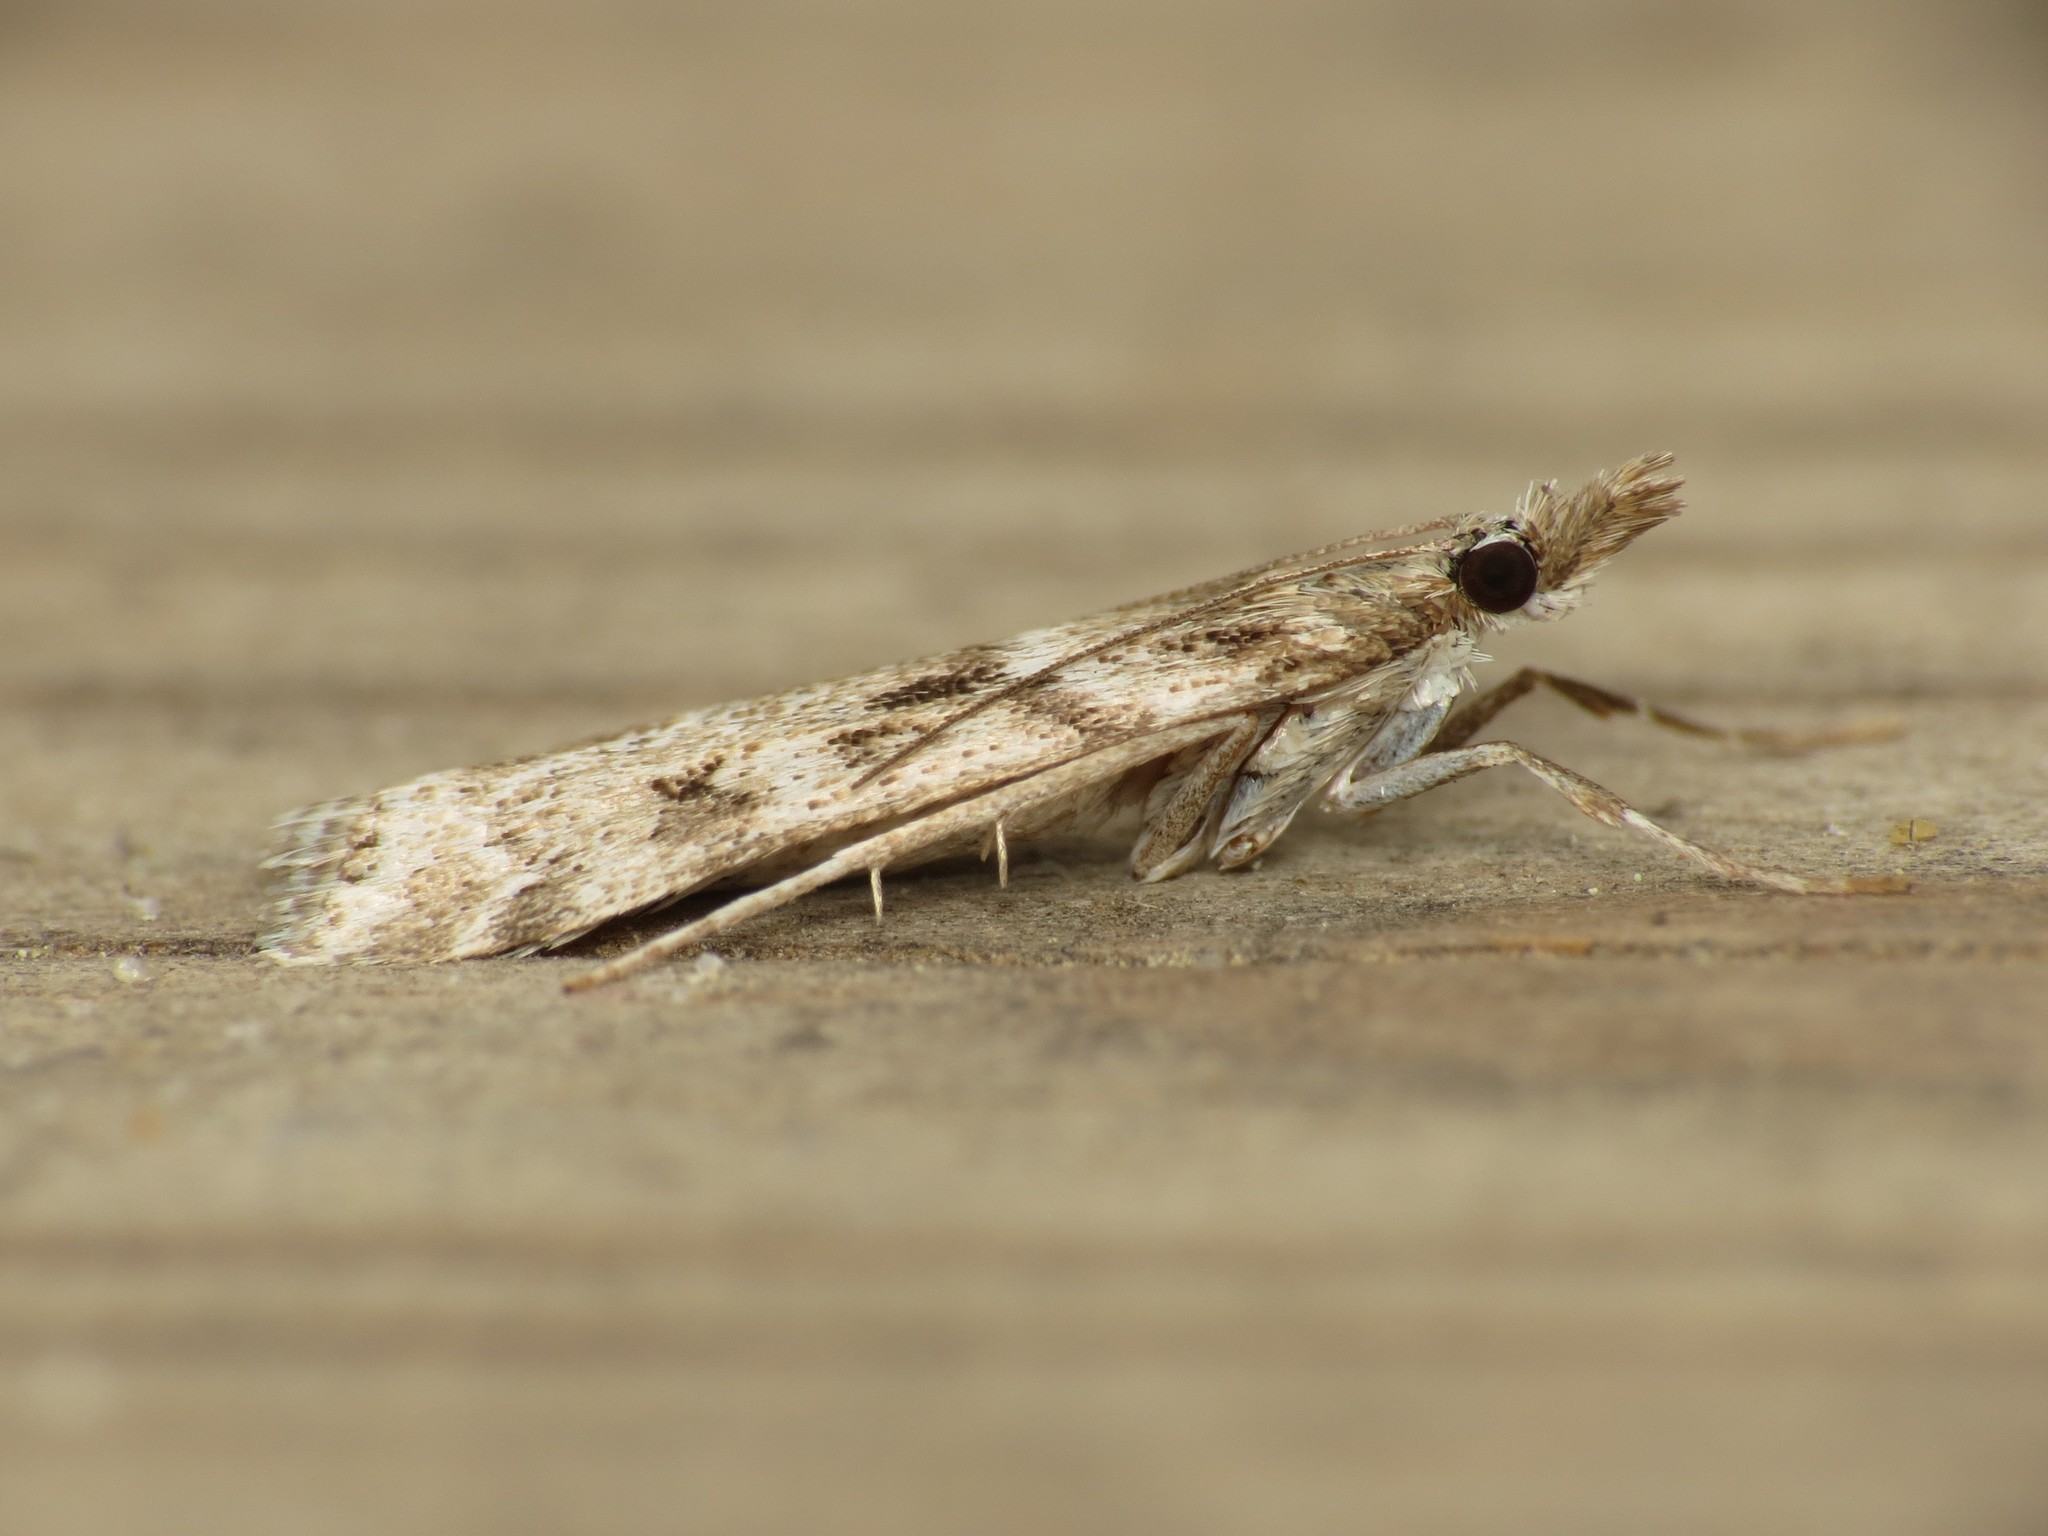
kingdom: Animalia
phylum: Arthropoda
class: Insecta
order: Lepidoptera
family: Crambidae
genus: Eudonia
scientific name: Eudonia angustea
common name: Narrow-winged grey
